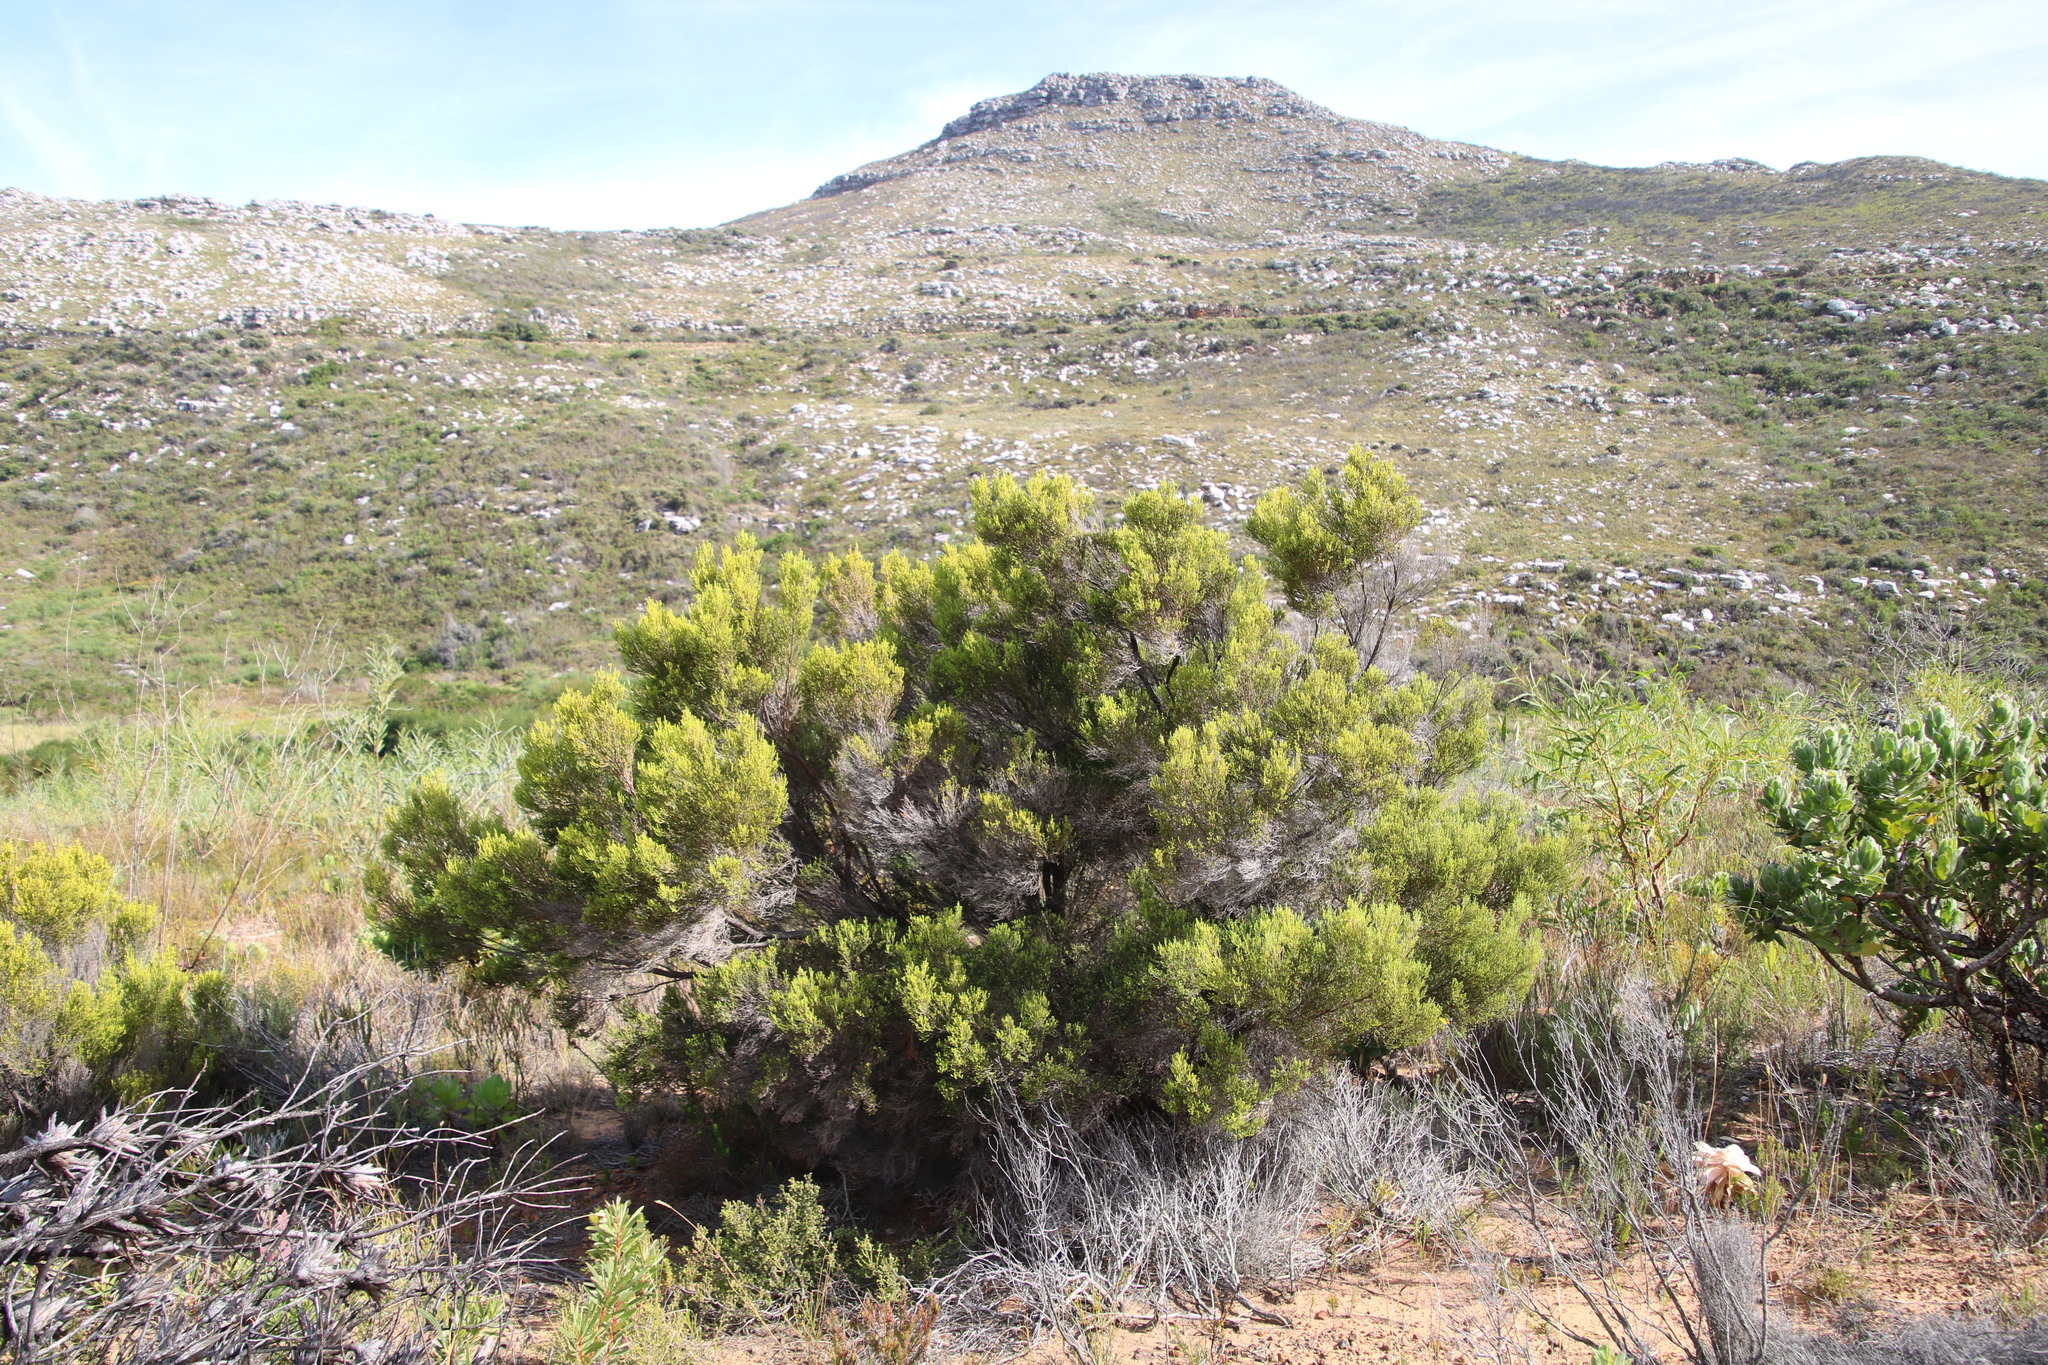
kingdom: Plantae
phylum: Tracheophyta
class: Magnoliopsida
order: Ericales
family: Ericaceae
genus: Erica
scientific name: Erica tristis
